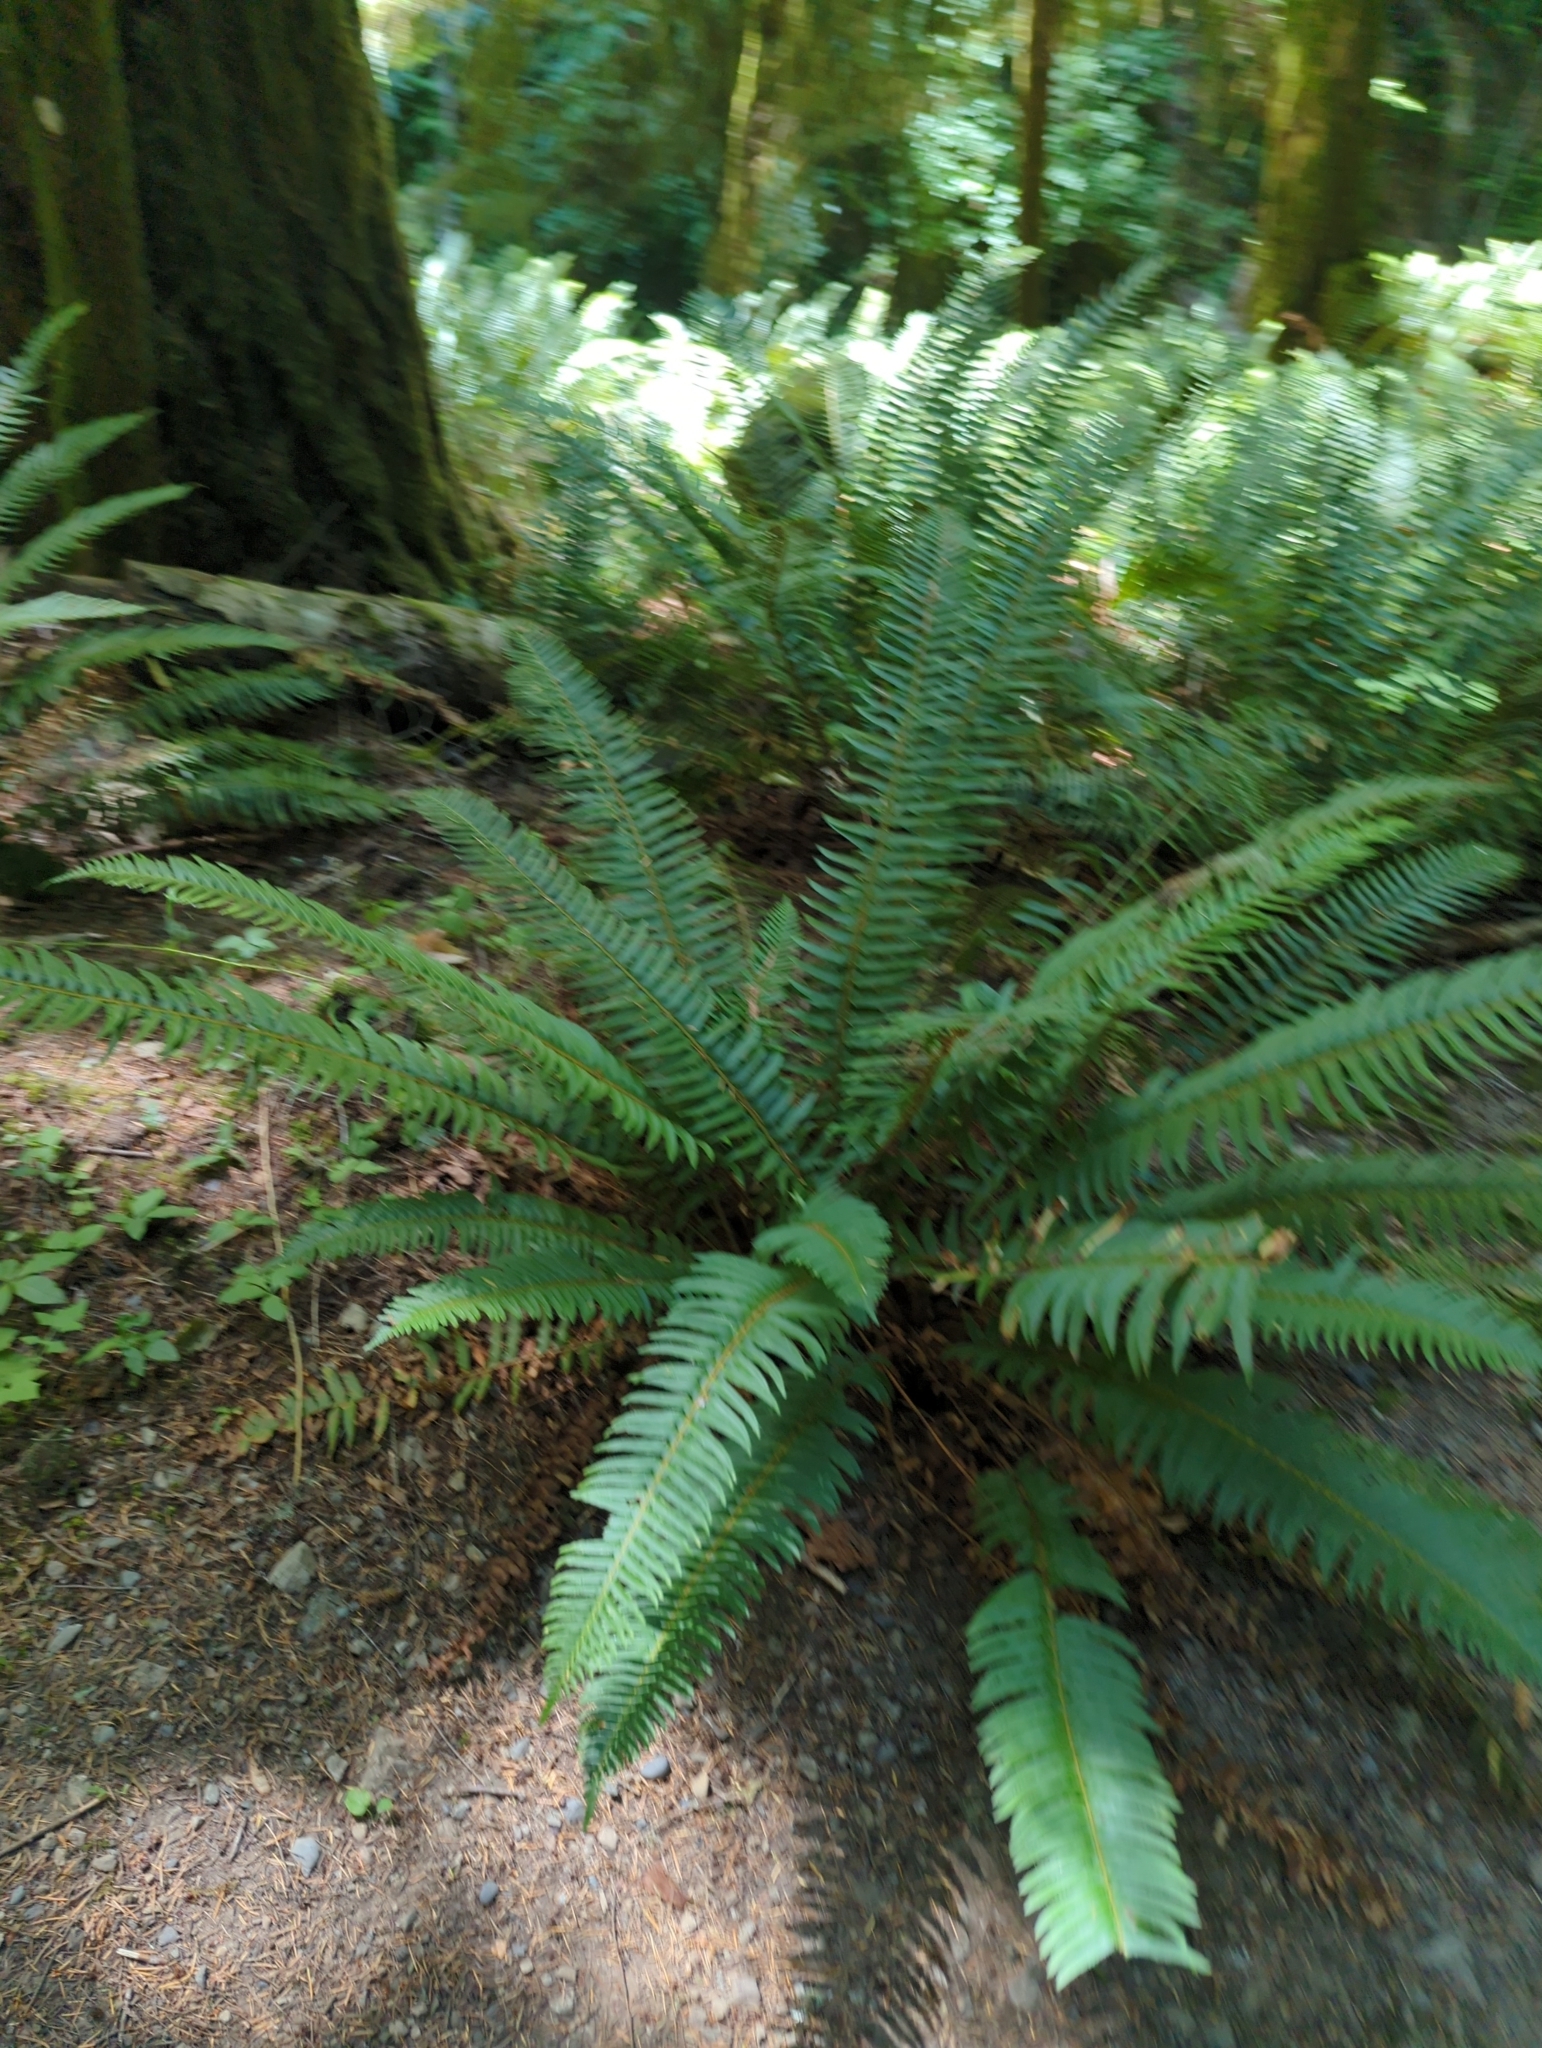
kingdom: Plantae
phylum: Tracheophyta
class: Polypodiopsida
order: Polypodiales
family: Dryopteridaceae
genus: Polystichum
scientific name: Polystichum munitum
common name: Western sword-fern
